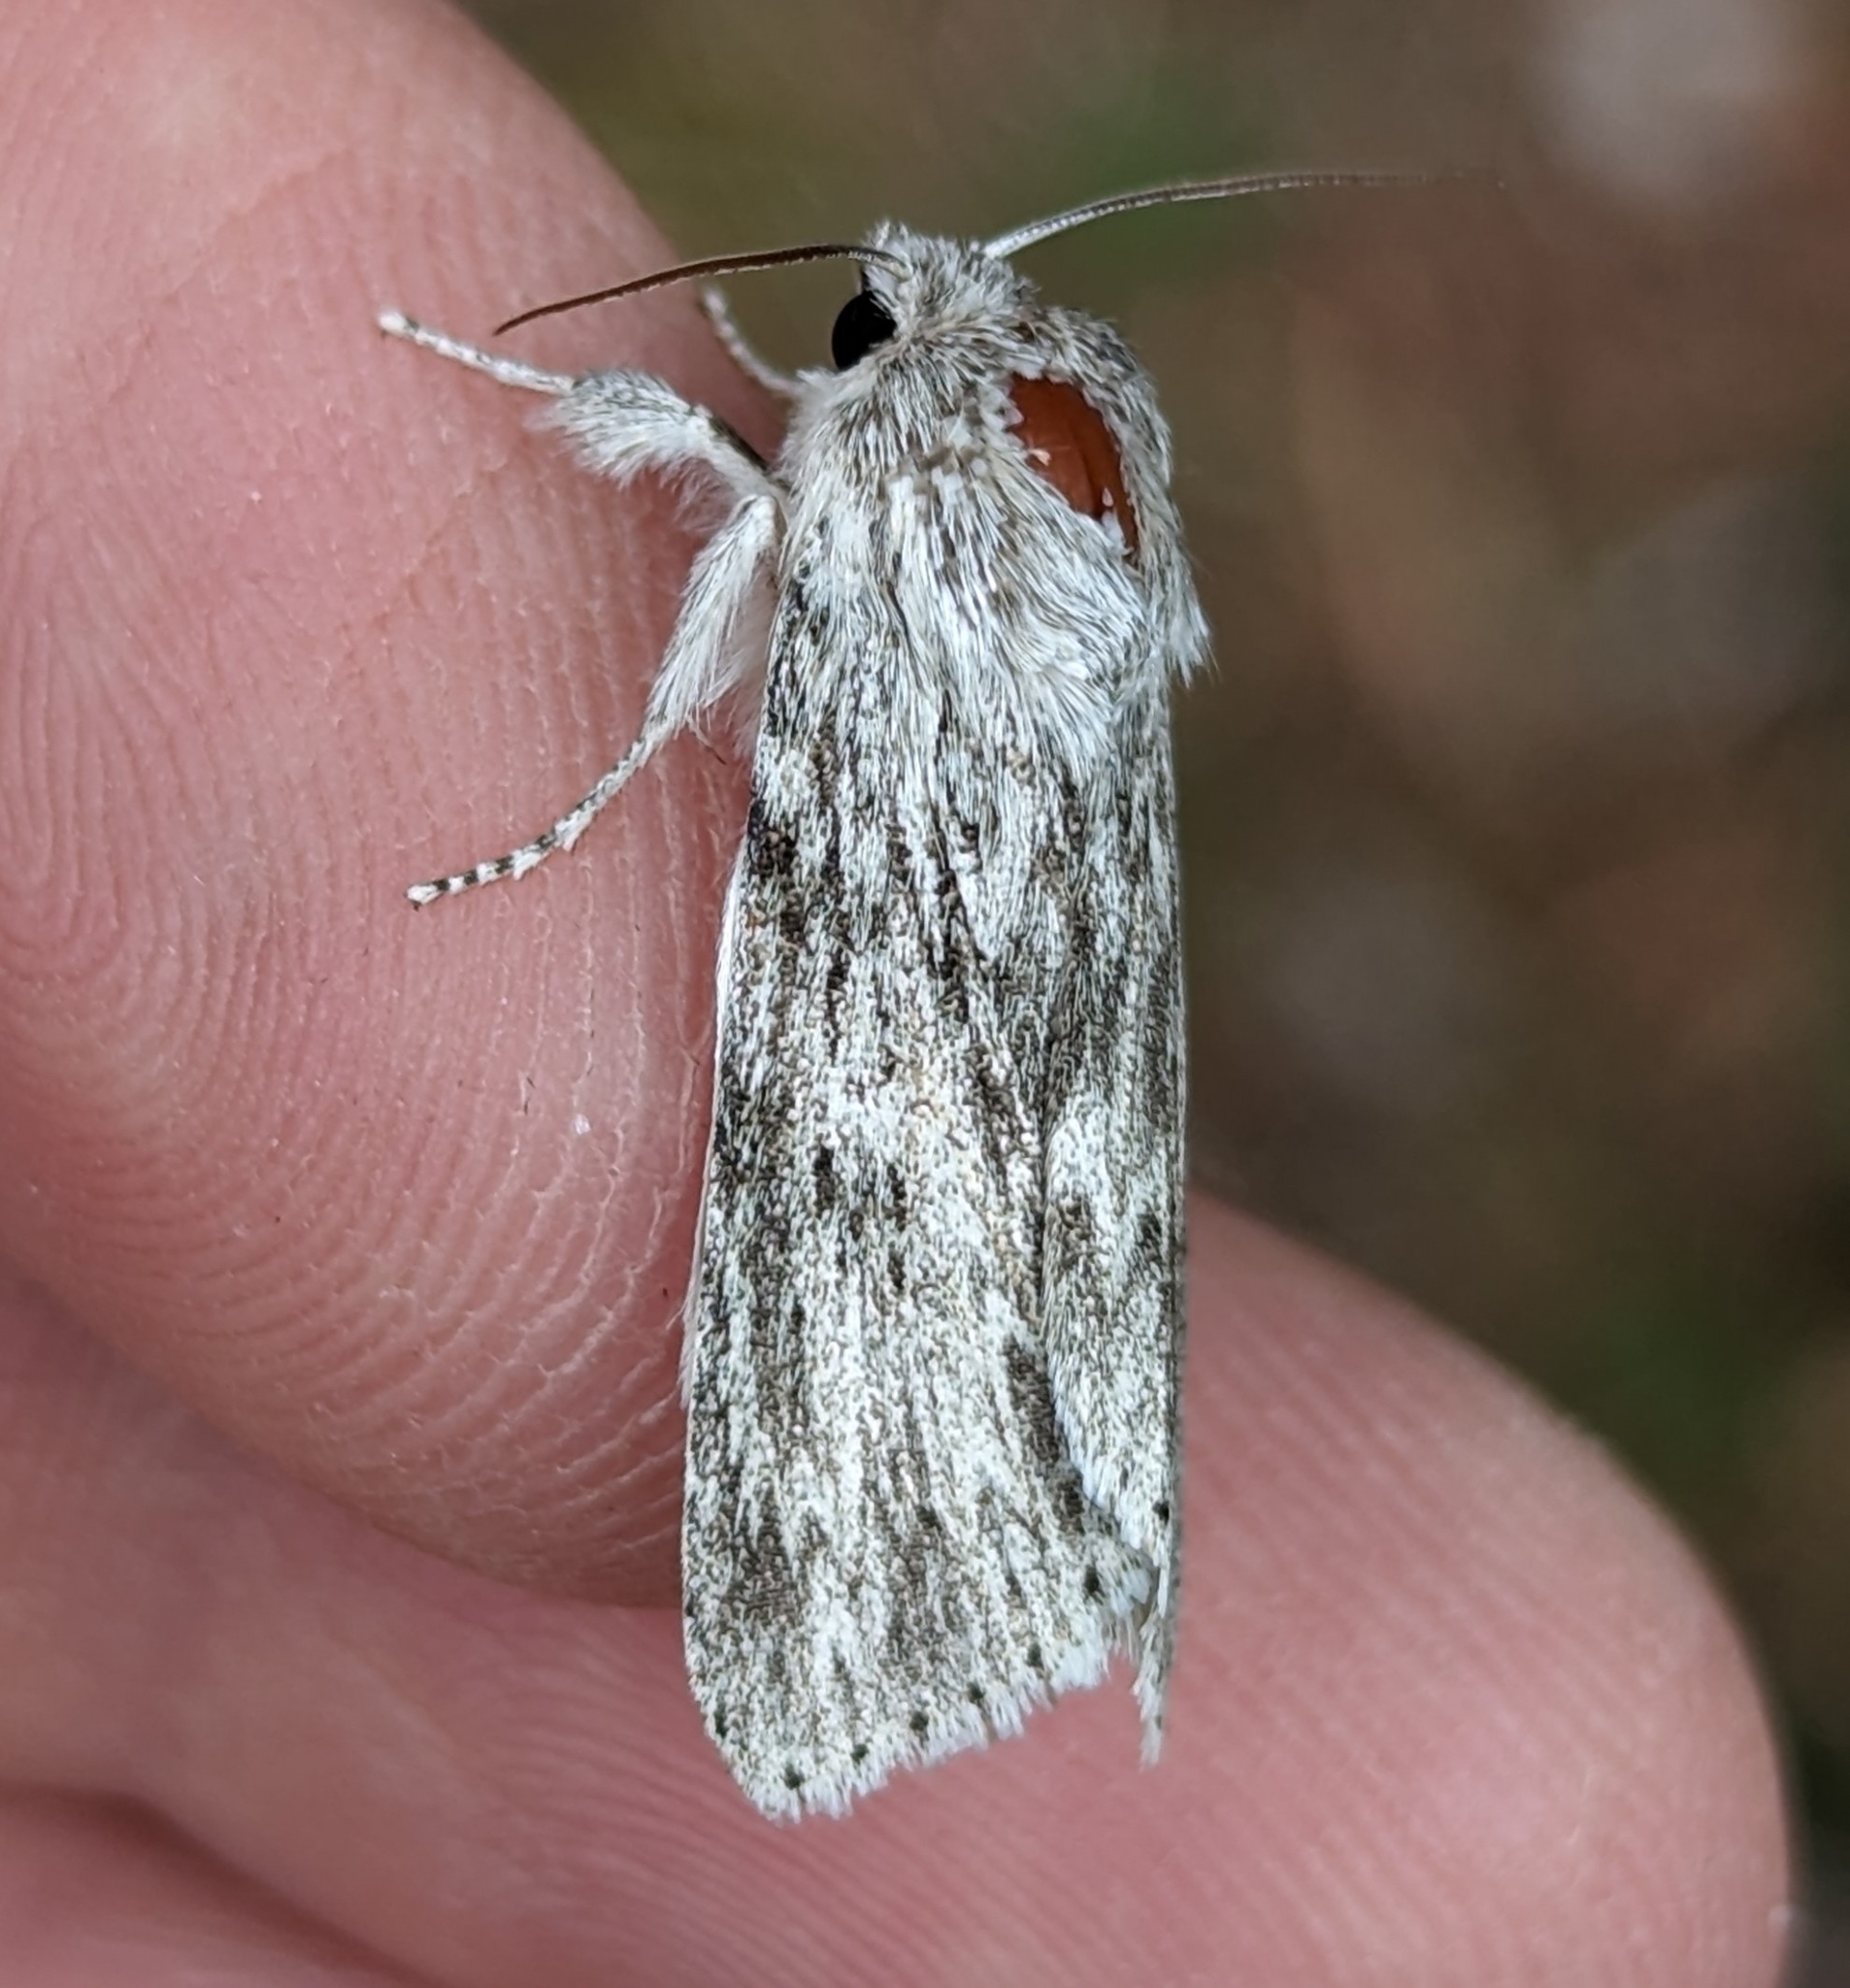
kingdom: Animalia
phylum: Arthropoda
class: Insecta
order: Lepidoptera
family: Noctuidae
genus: Acronicta
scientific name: Acronicta oblinita
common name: Smeared dagger
